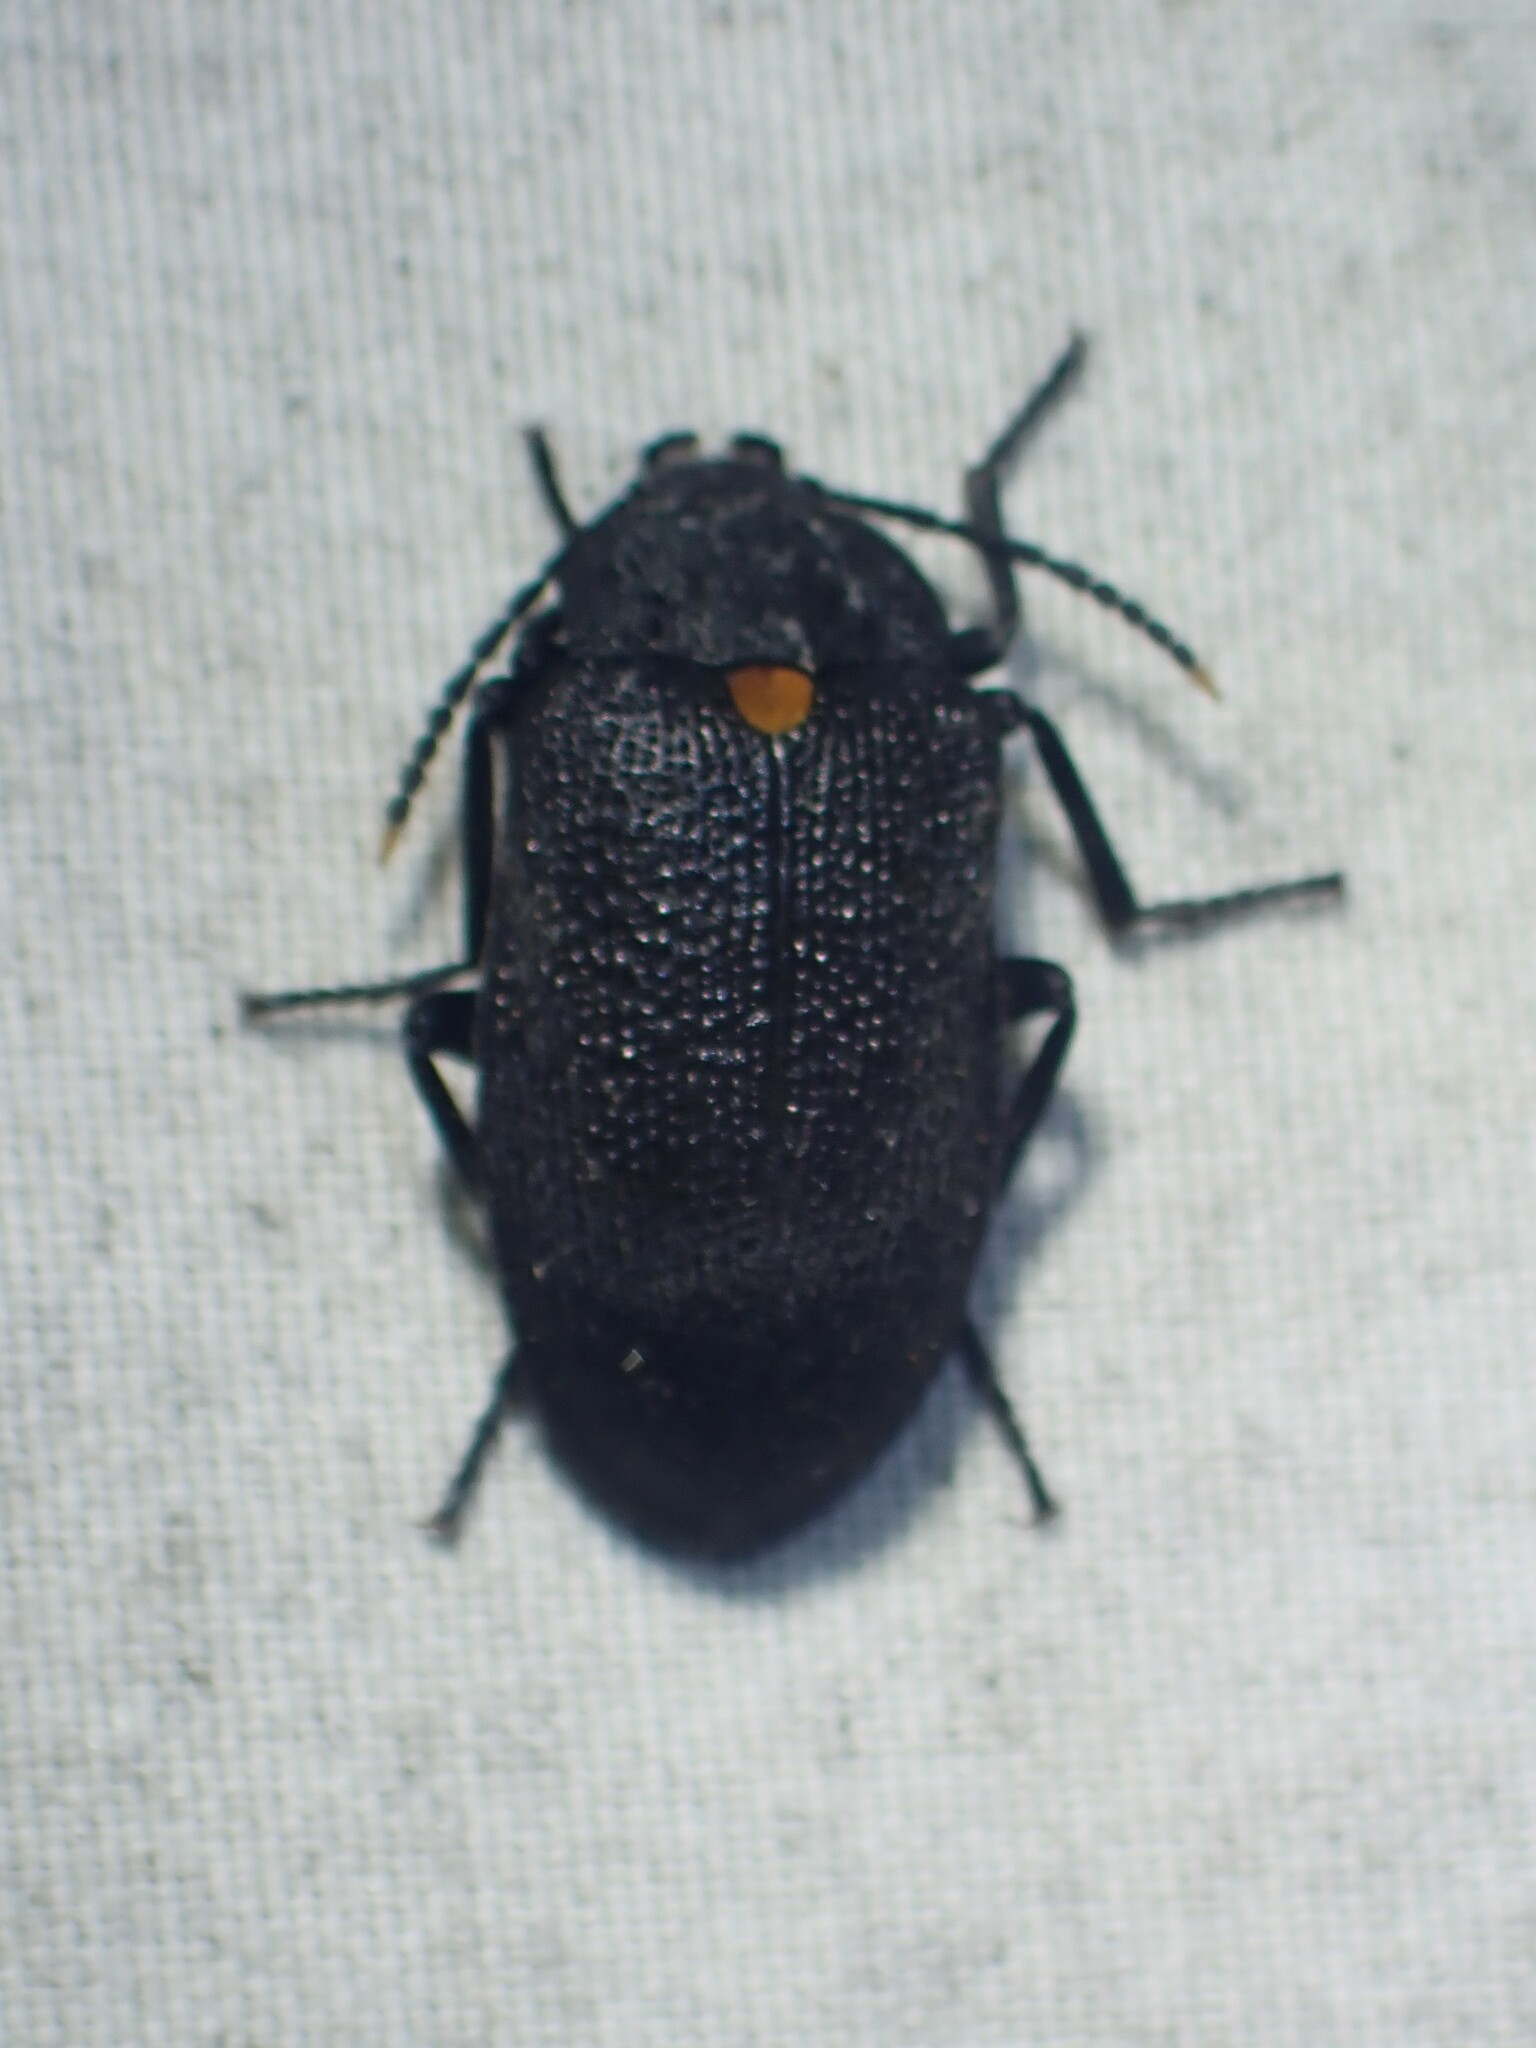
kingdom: Animalia
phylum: Arthropoda
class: Insecta
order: Coleoptera
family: Tetratomidae
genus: Penthe
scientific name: Penthe obliquata
